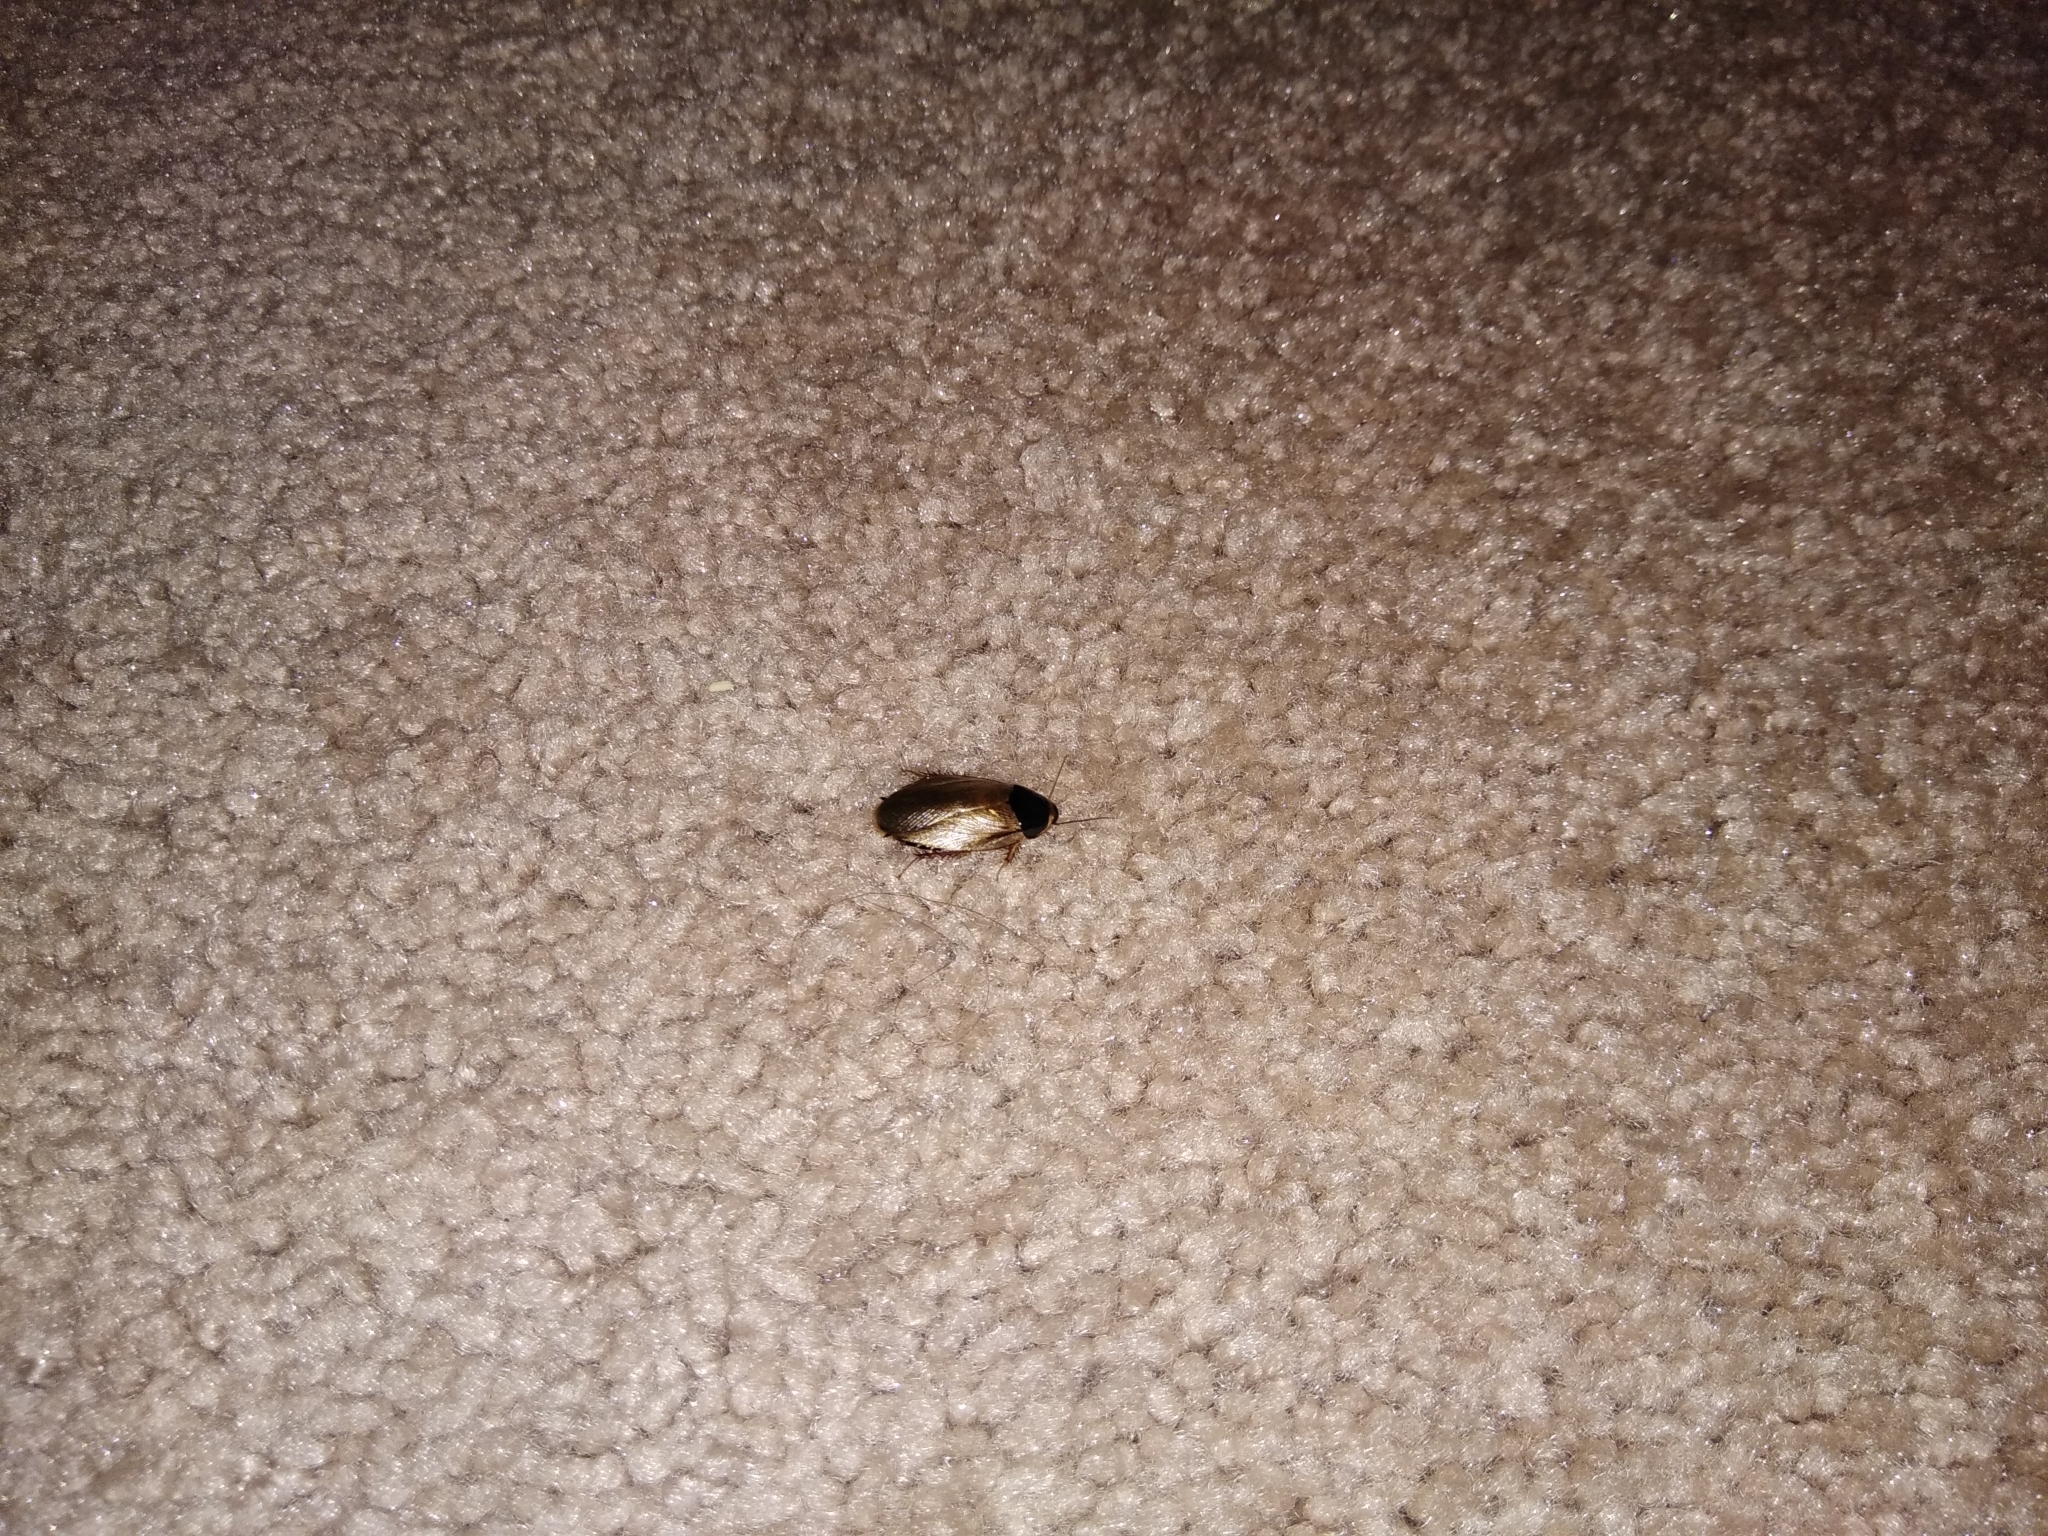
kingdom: Animalia
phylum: Arthropoda
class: Insecta
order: Blattodea
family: Blaberidae
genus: Pycnoscelus
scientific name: Pycnoscelus surinamensis
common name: Surinam cockroach
